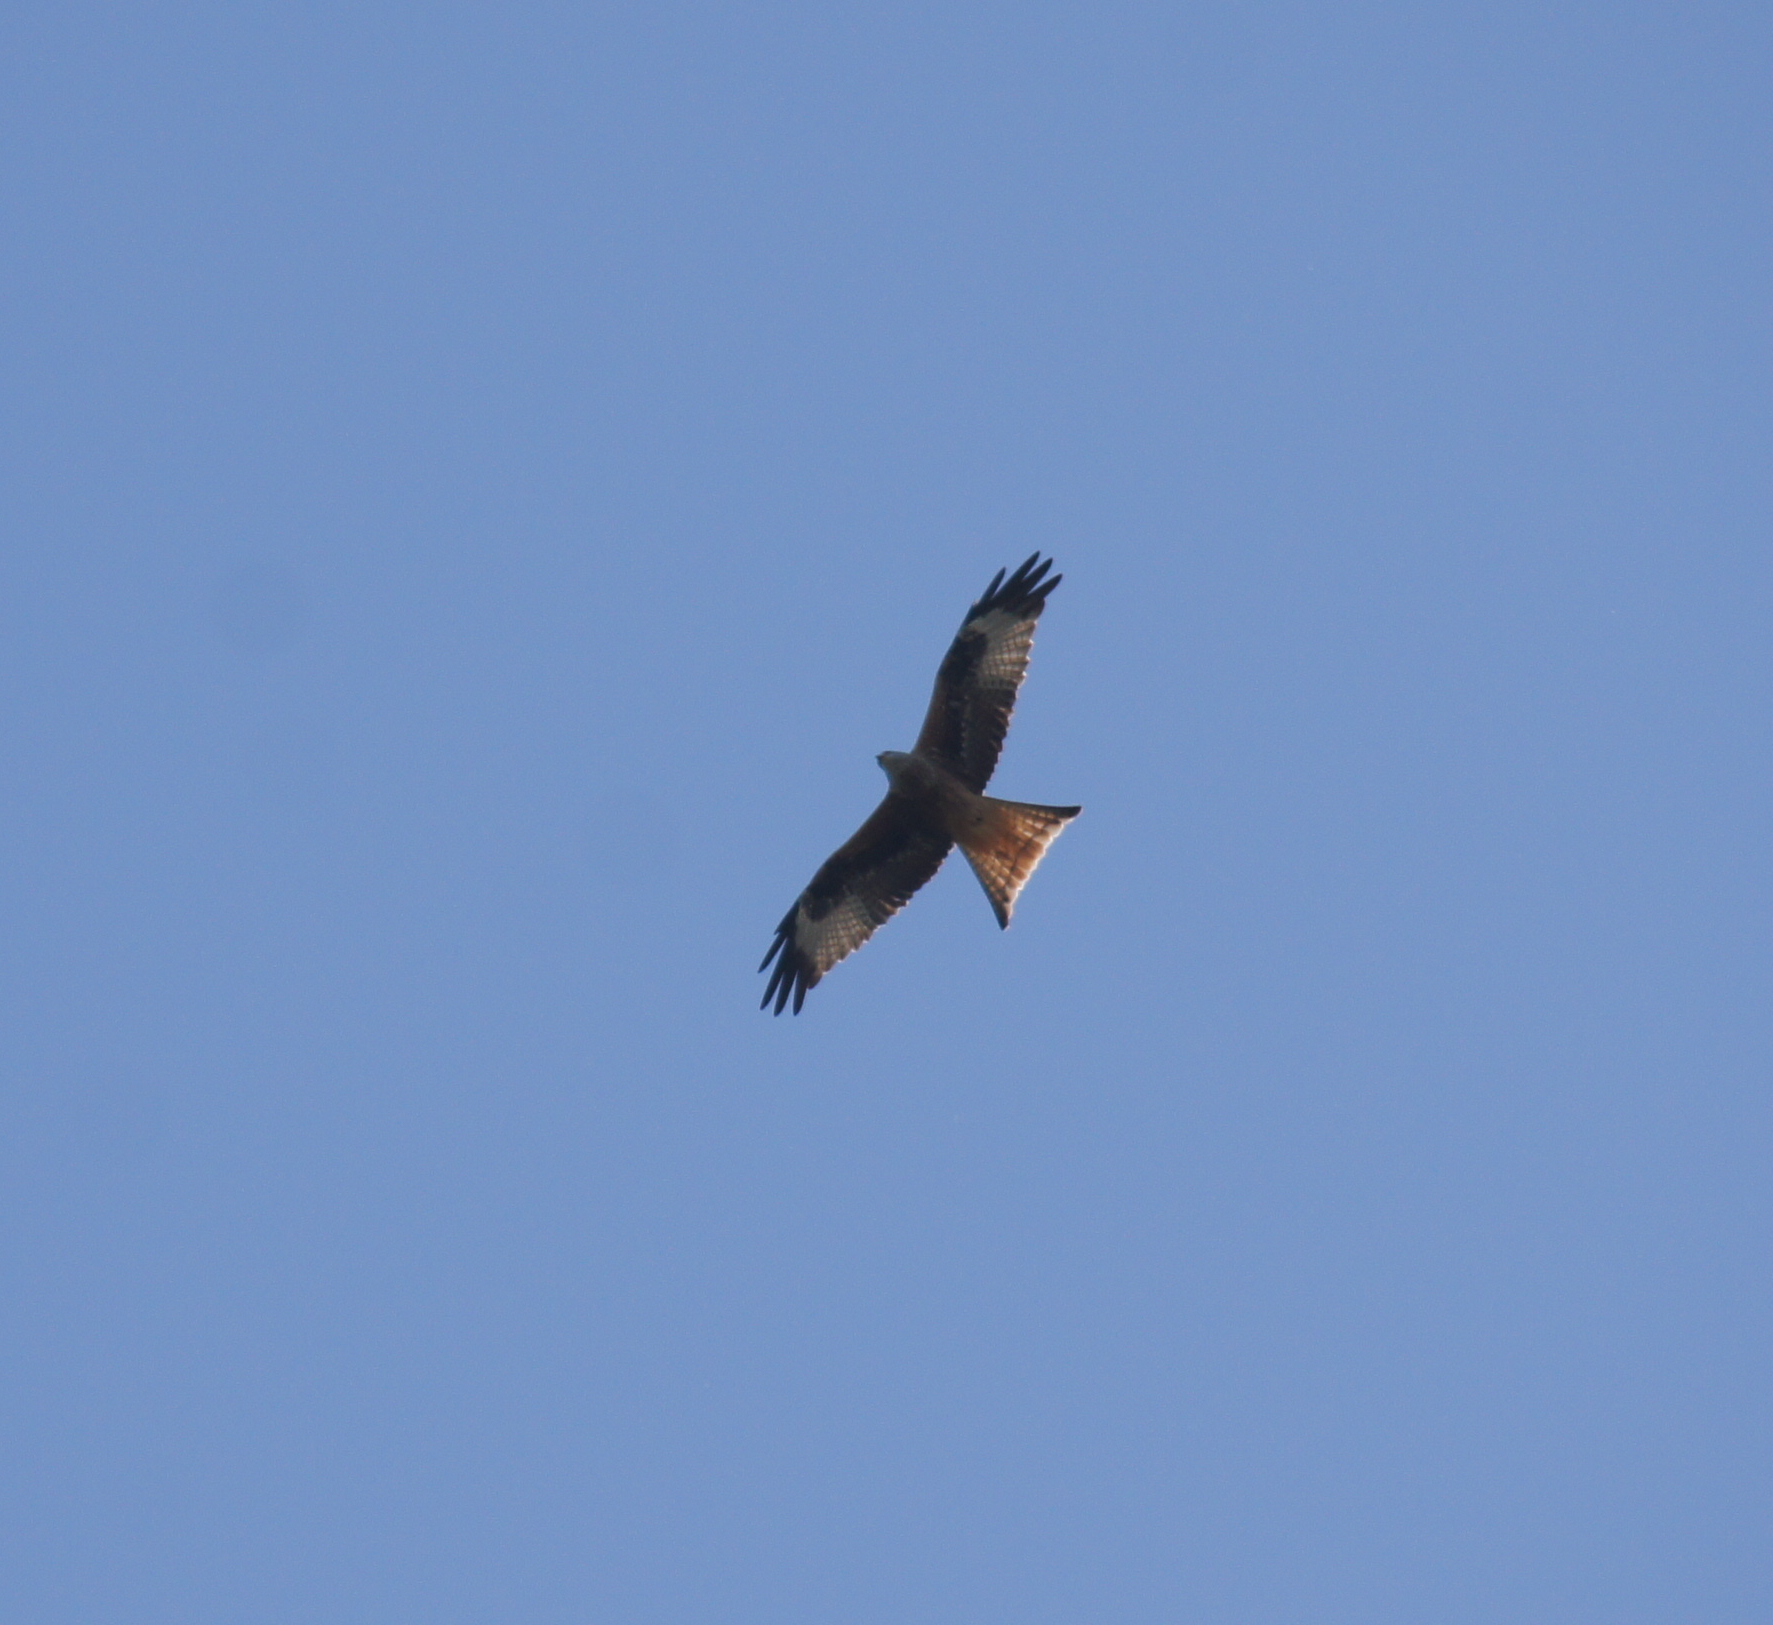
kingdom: Animalia
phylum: Chordata
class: Aves
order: Accipitriformes
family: Accipitridae
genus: Milvus
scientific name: Milvus milvus
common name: Red kite
